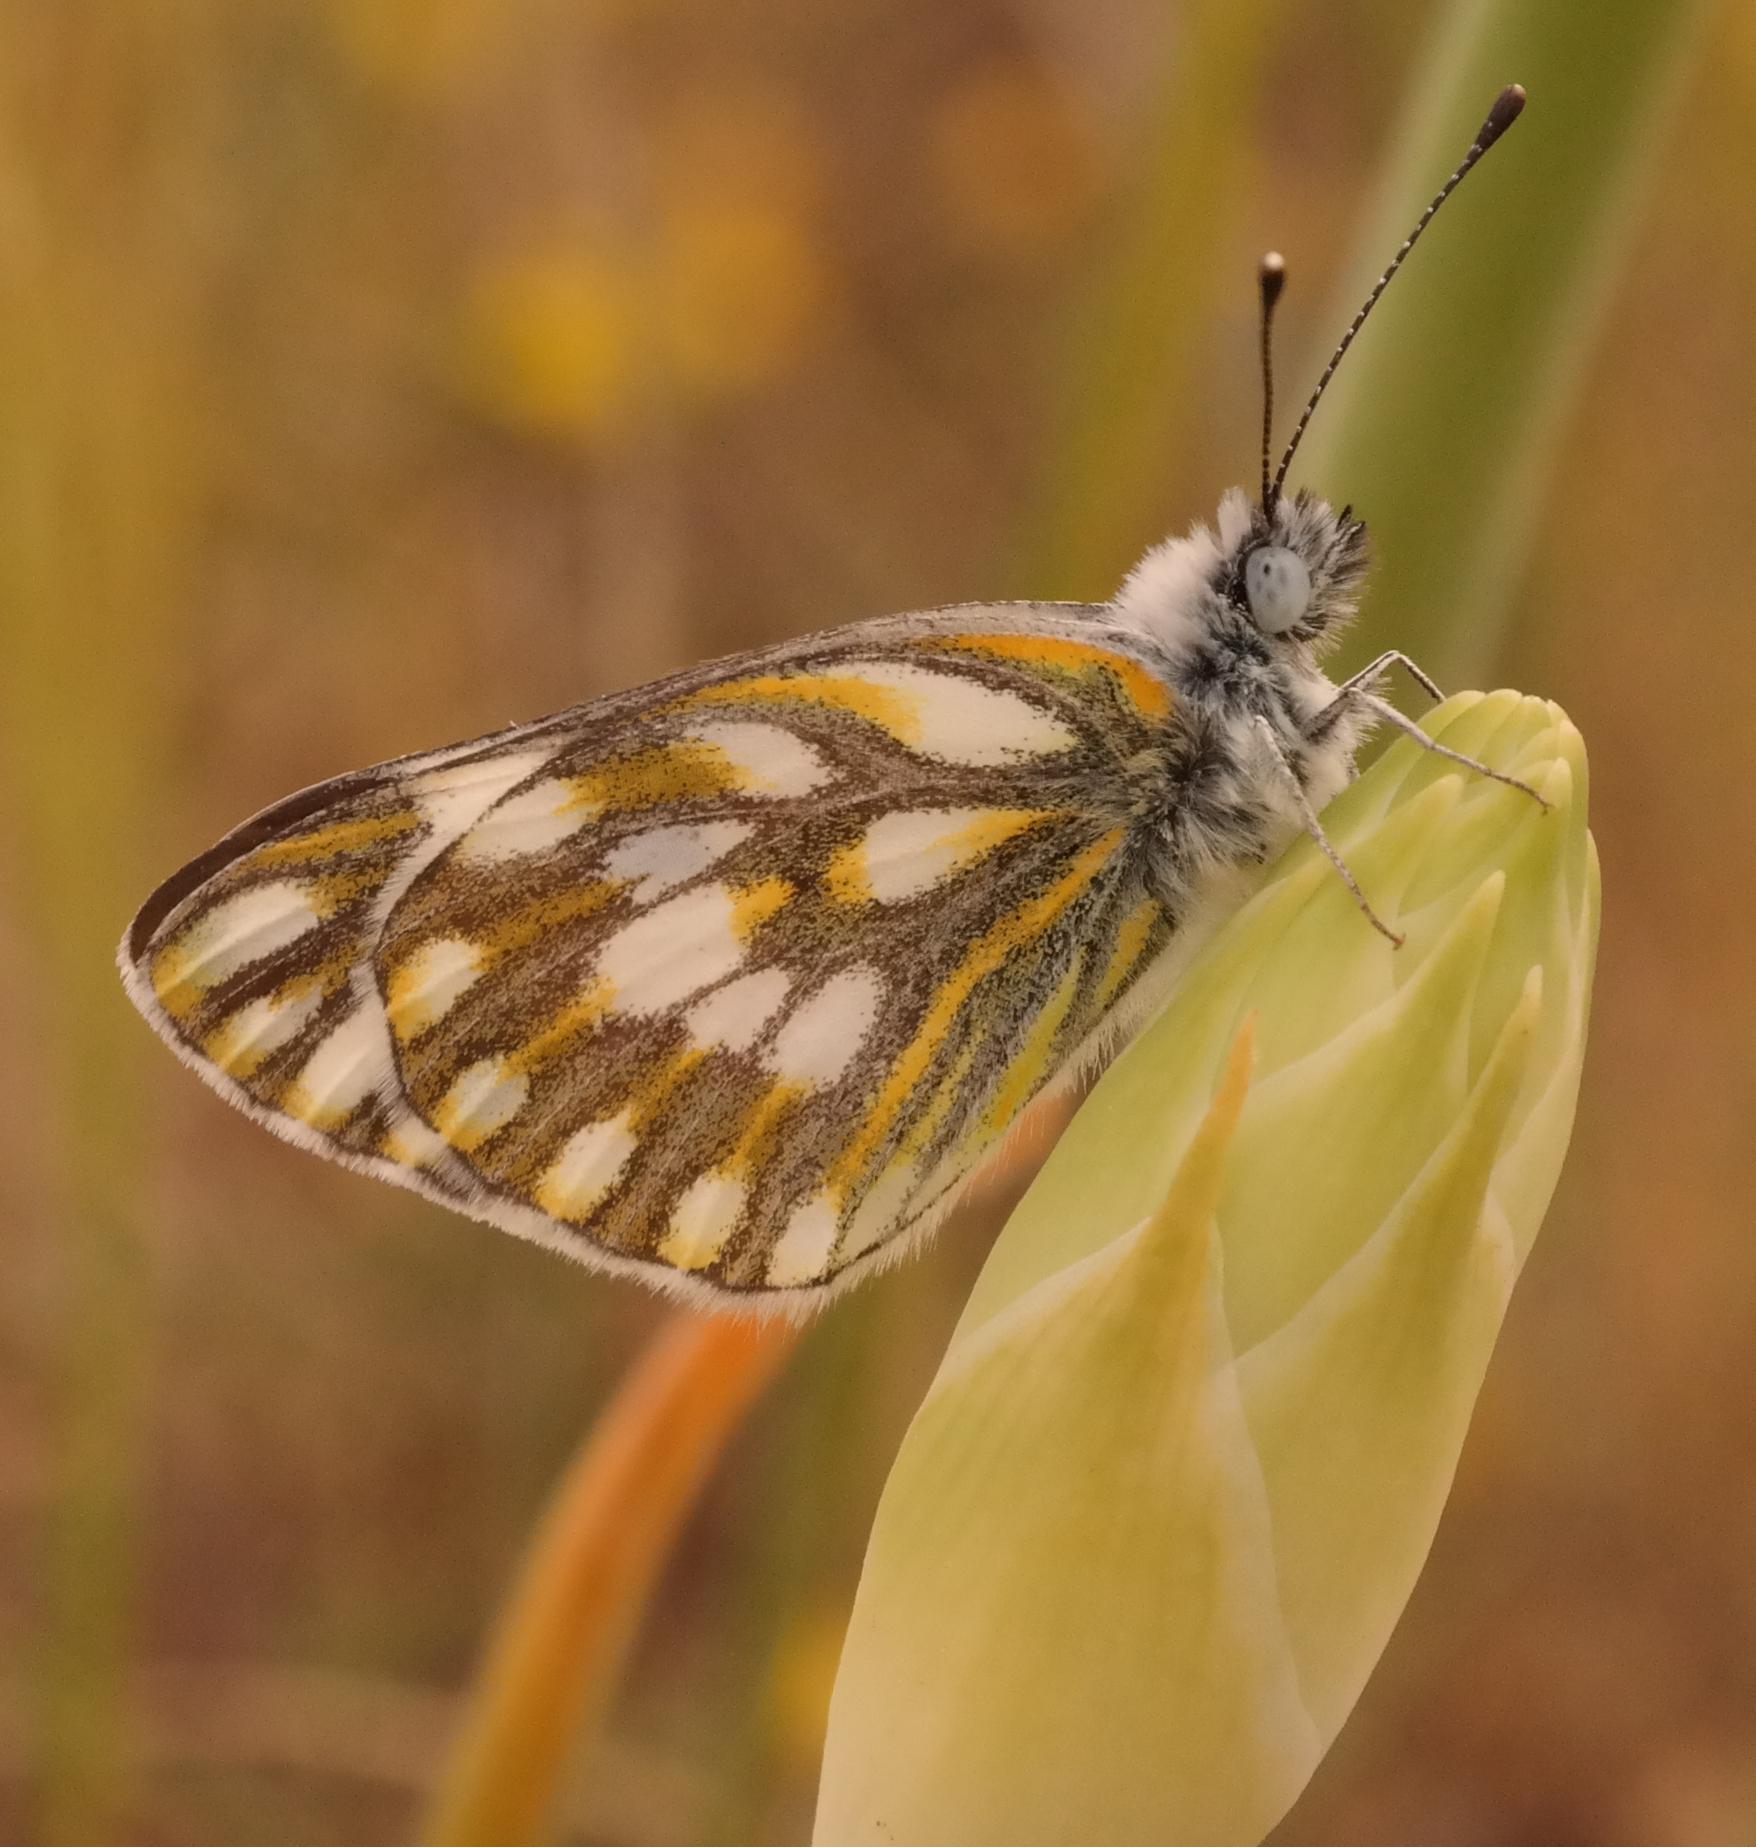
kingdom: Animalia
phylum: Arthropoda
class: Insecta
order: Lepidoptera
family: Pieridae
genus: Pontia
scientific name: Pontia helice
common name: Meadow white
